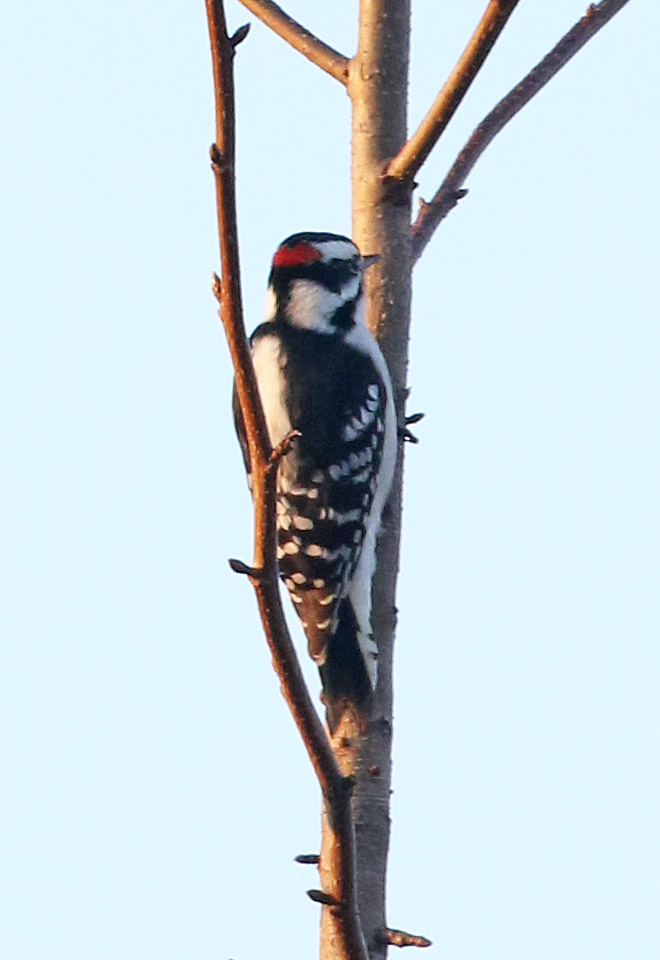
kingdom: Animalia
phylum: Chordata
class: Aves
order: Piciformes
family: Picidae
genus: Dryobates
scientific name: Dryobates pubescens
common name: Downy woodpecker
